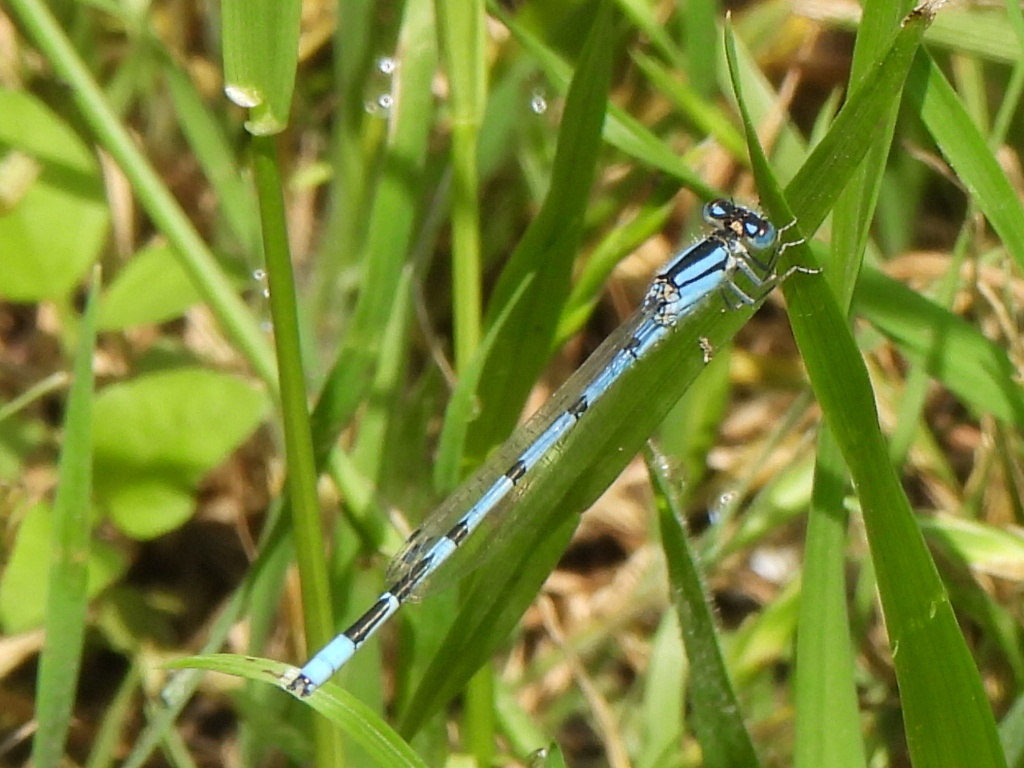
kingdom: Animalia
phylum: Arthropoda
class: Insecta
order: Odonata
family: Coenagrionidae
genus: Enallagma
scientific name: Enallagma civile
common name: Damselfly
